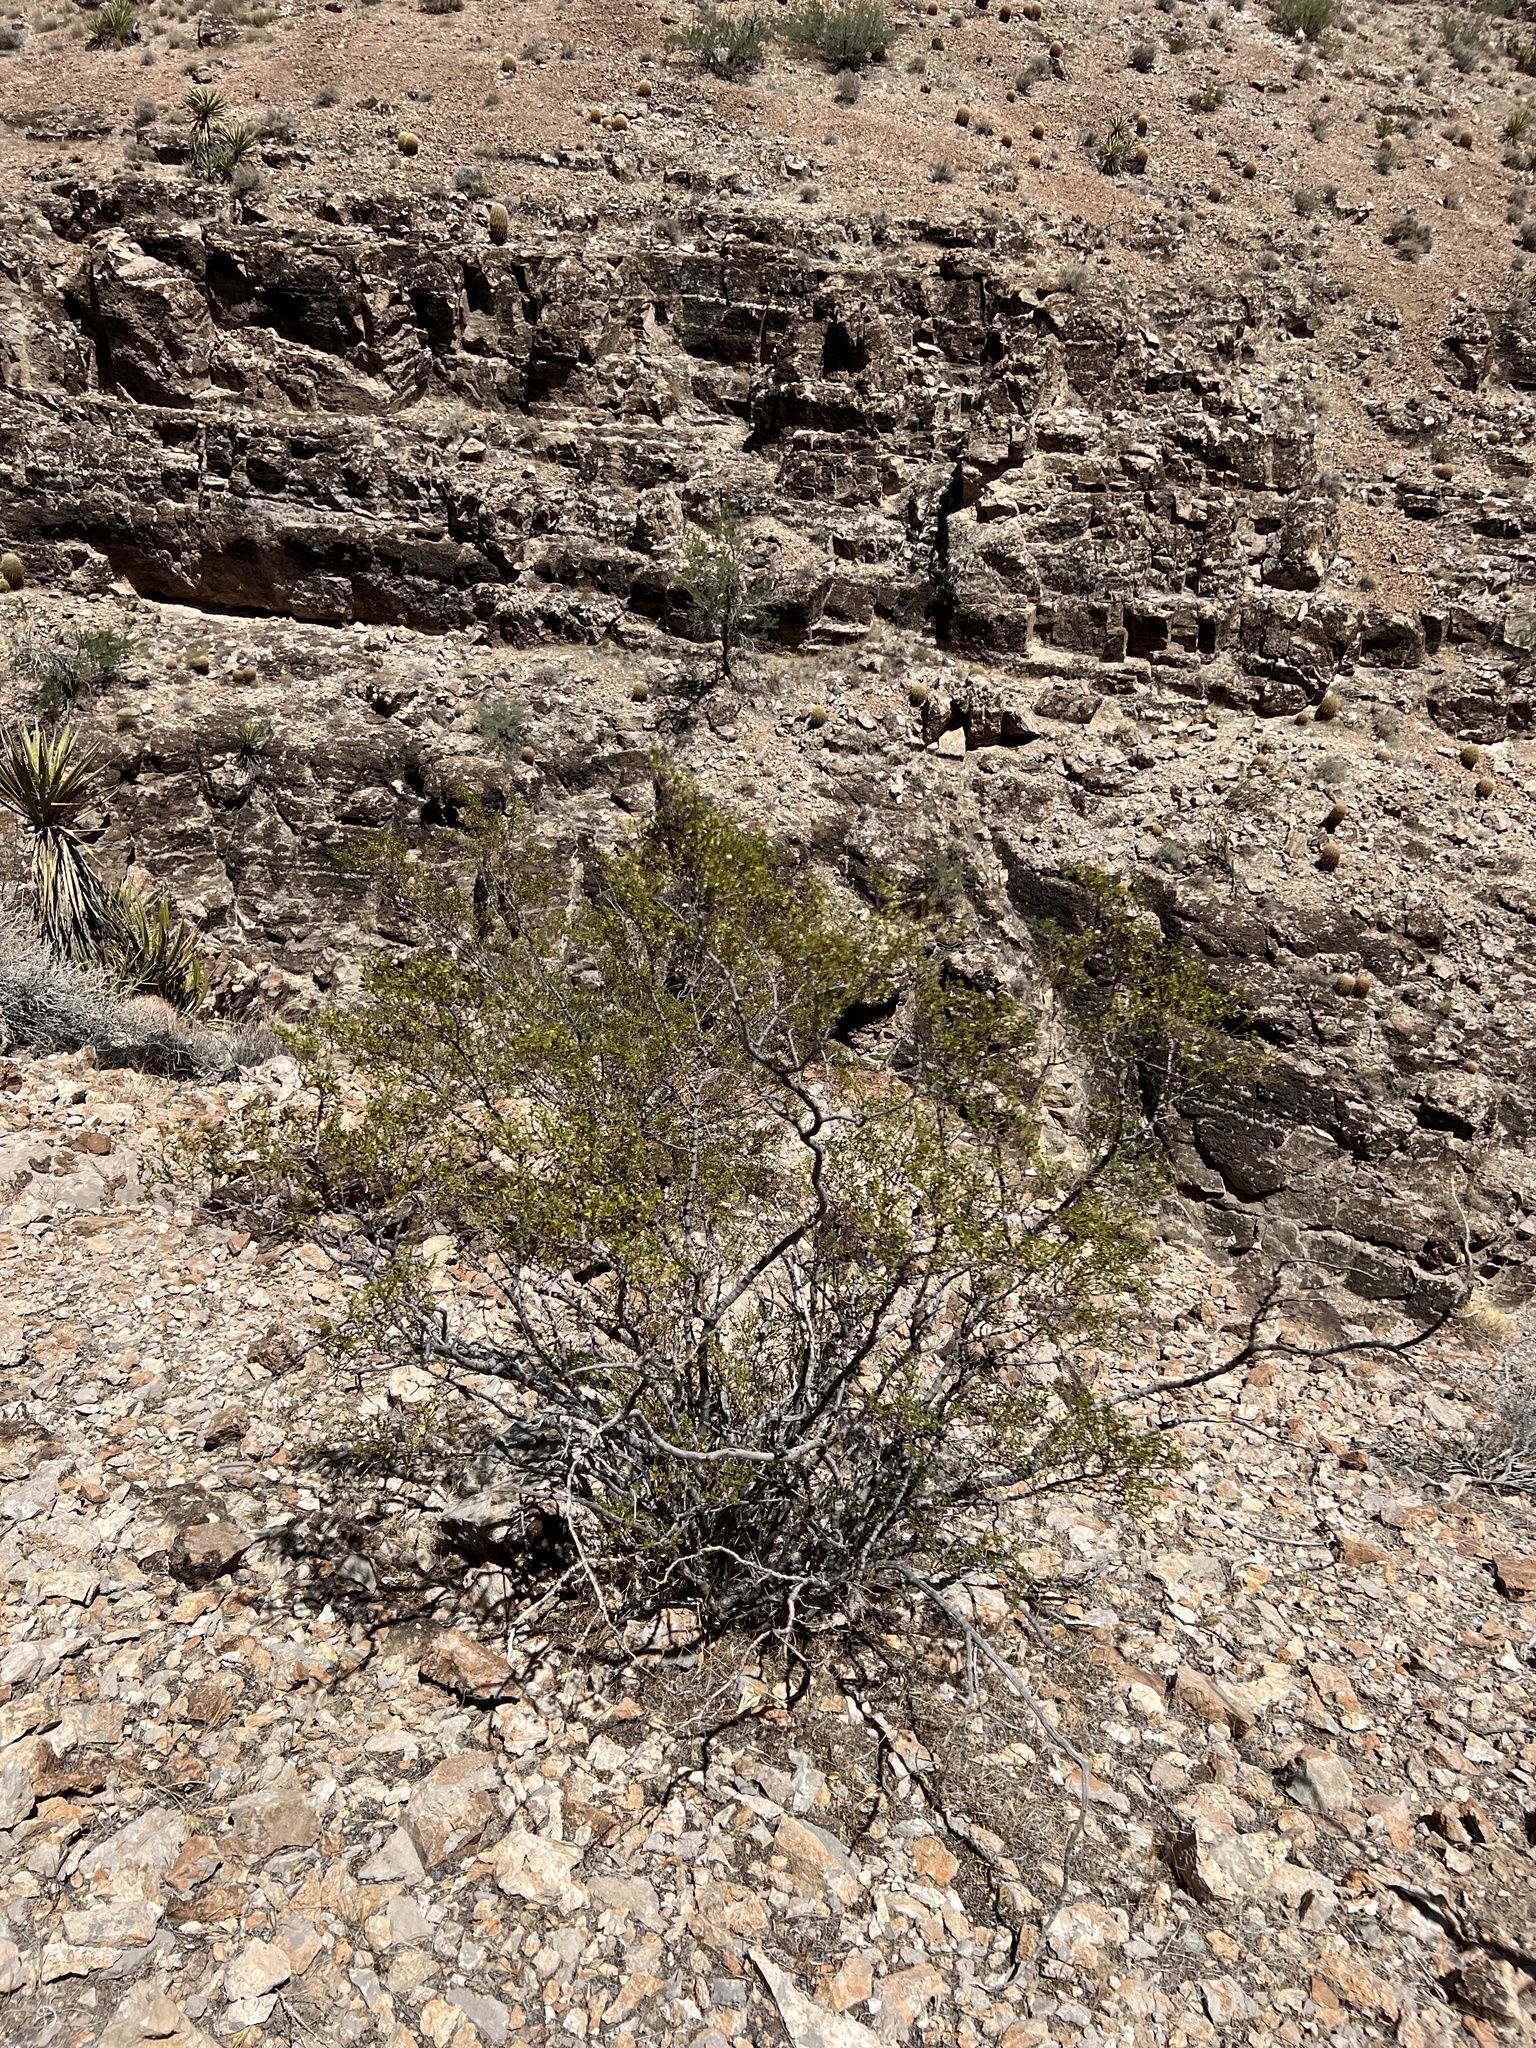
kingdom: Plantae
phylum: Tracheophyta
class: Magnoliopsida
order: Zygophyllales
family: Zygophyllaceae
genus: Larrea
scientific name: Larrea tridentata
